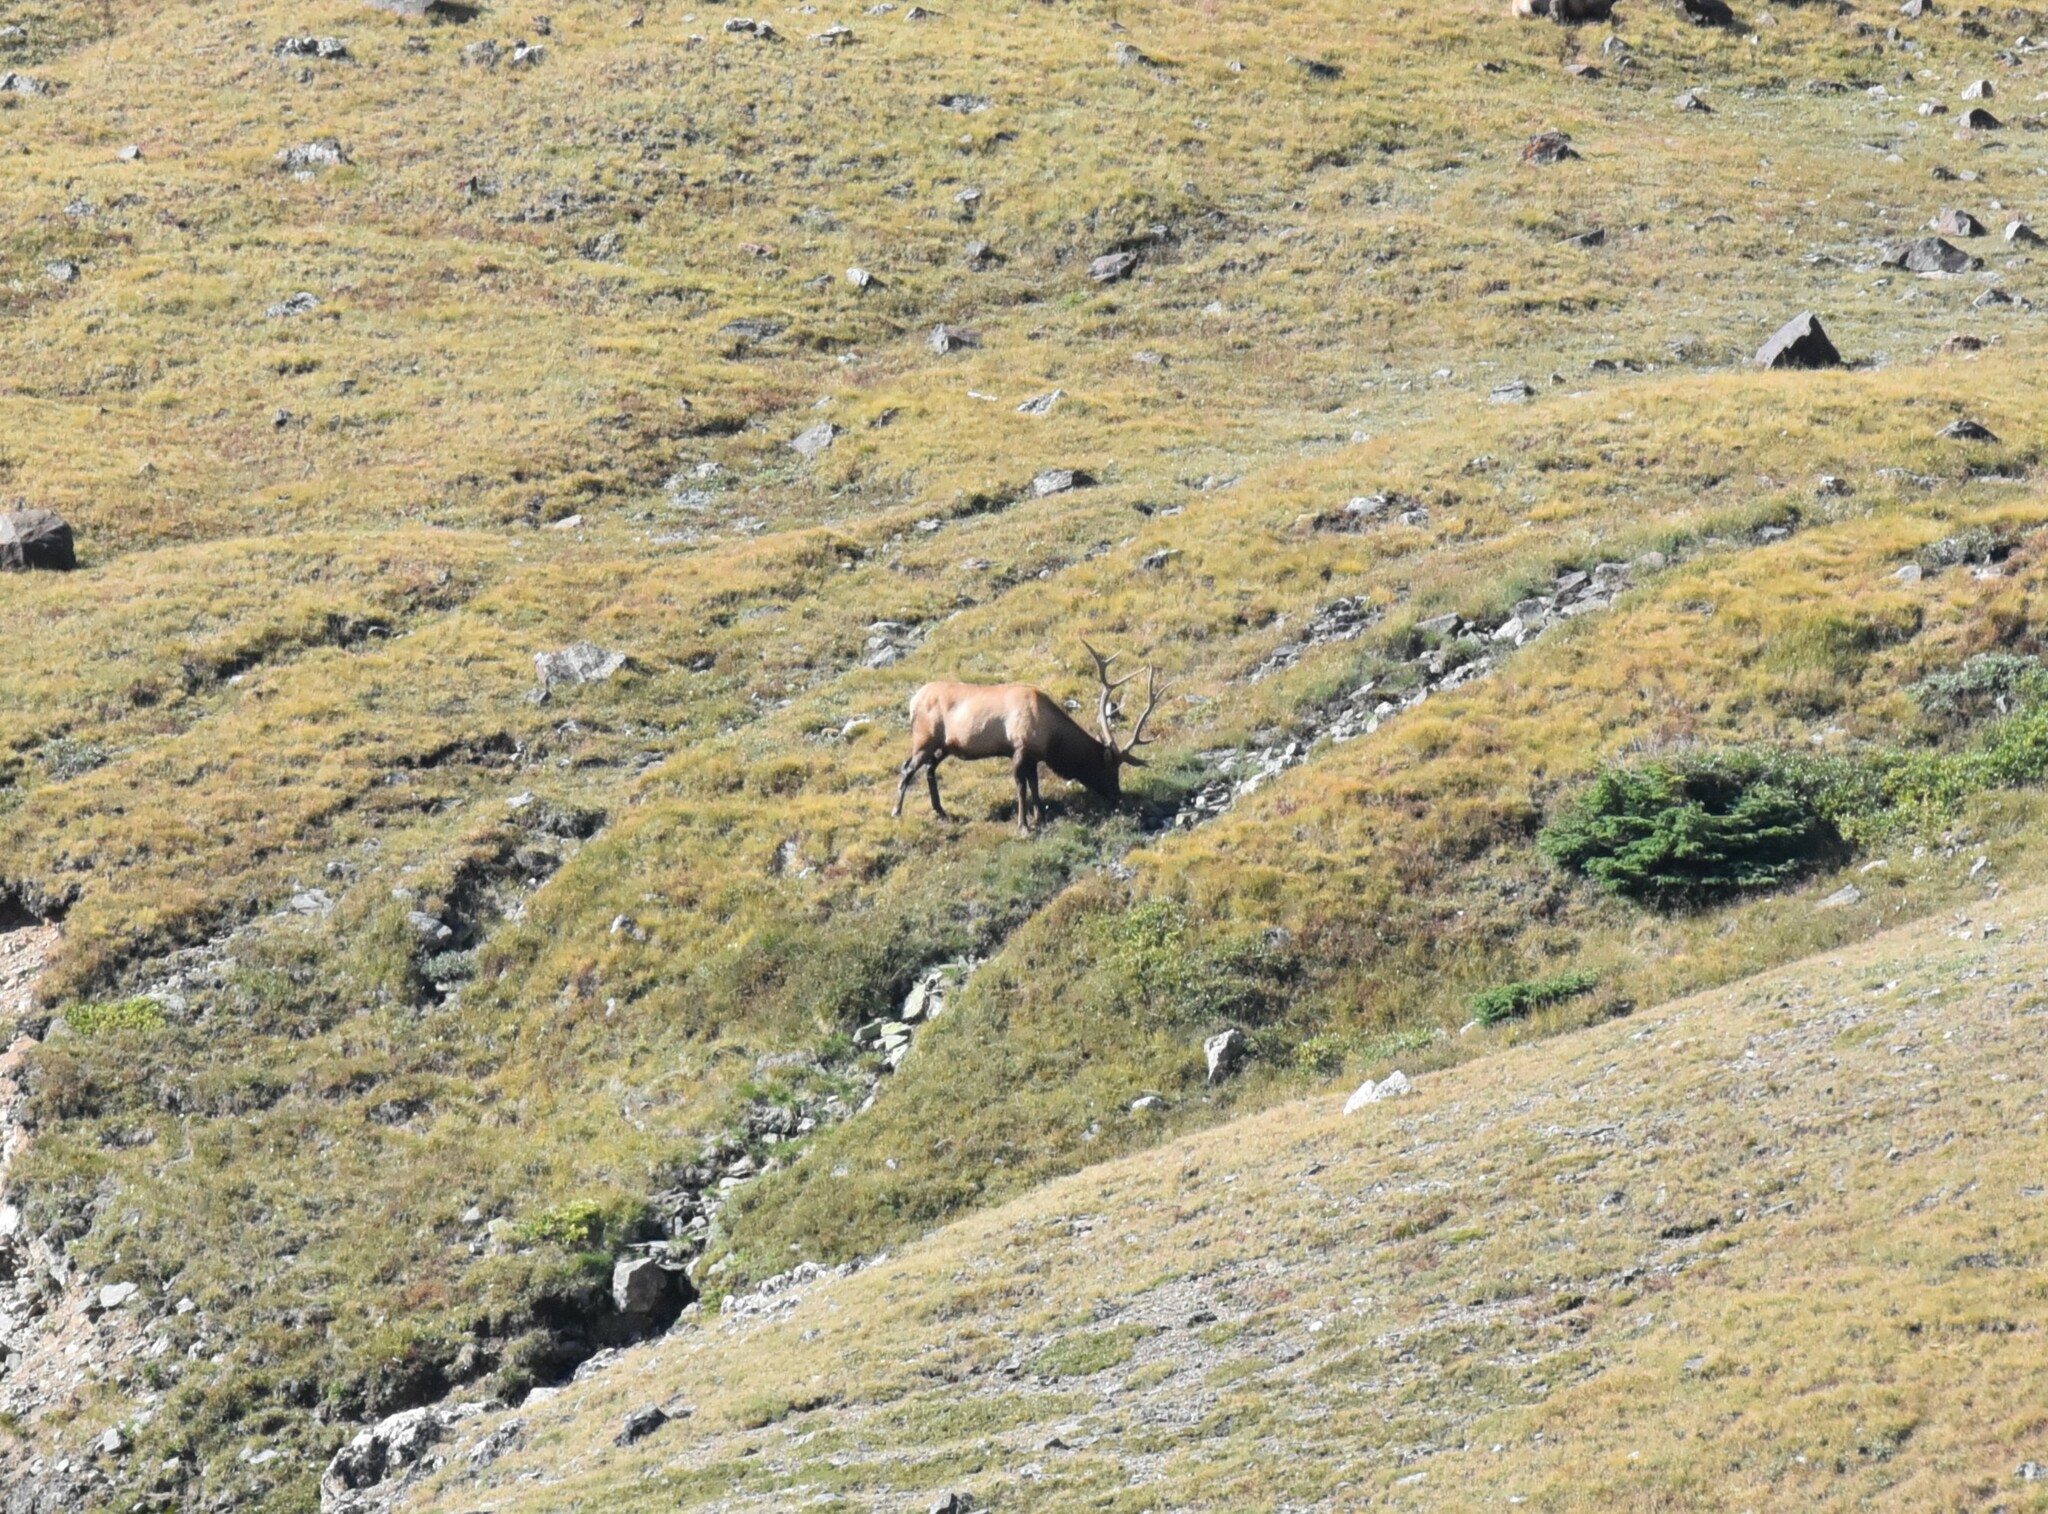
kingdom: Animalia
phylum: Chordata
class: Mammalia
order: Artiodactyla
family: Cervidae
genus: Cervus
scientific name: Cervus elaphus
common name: Red deer
